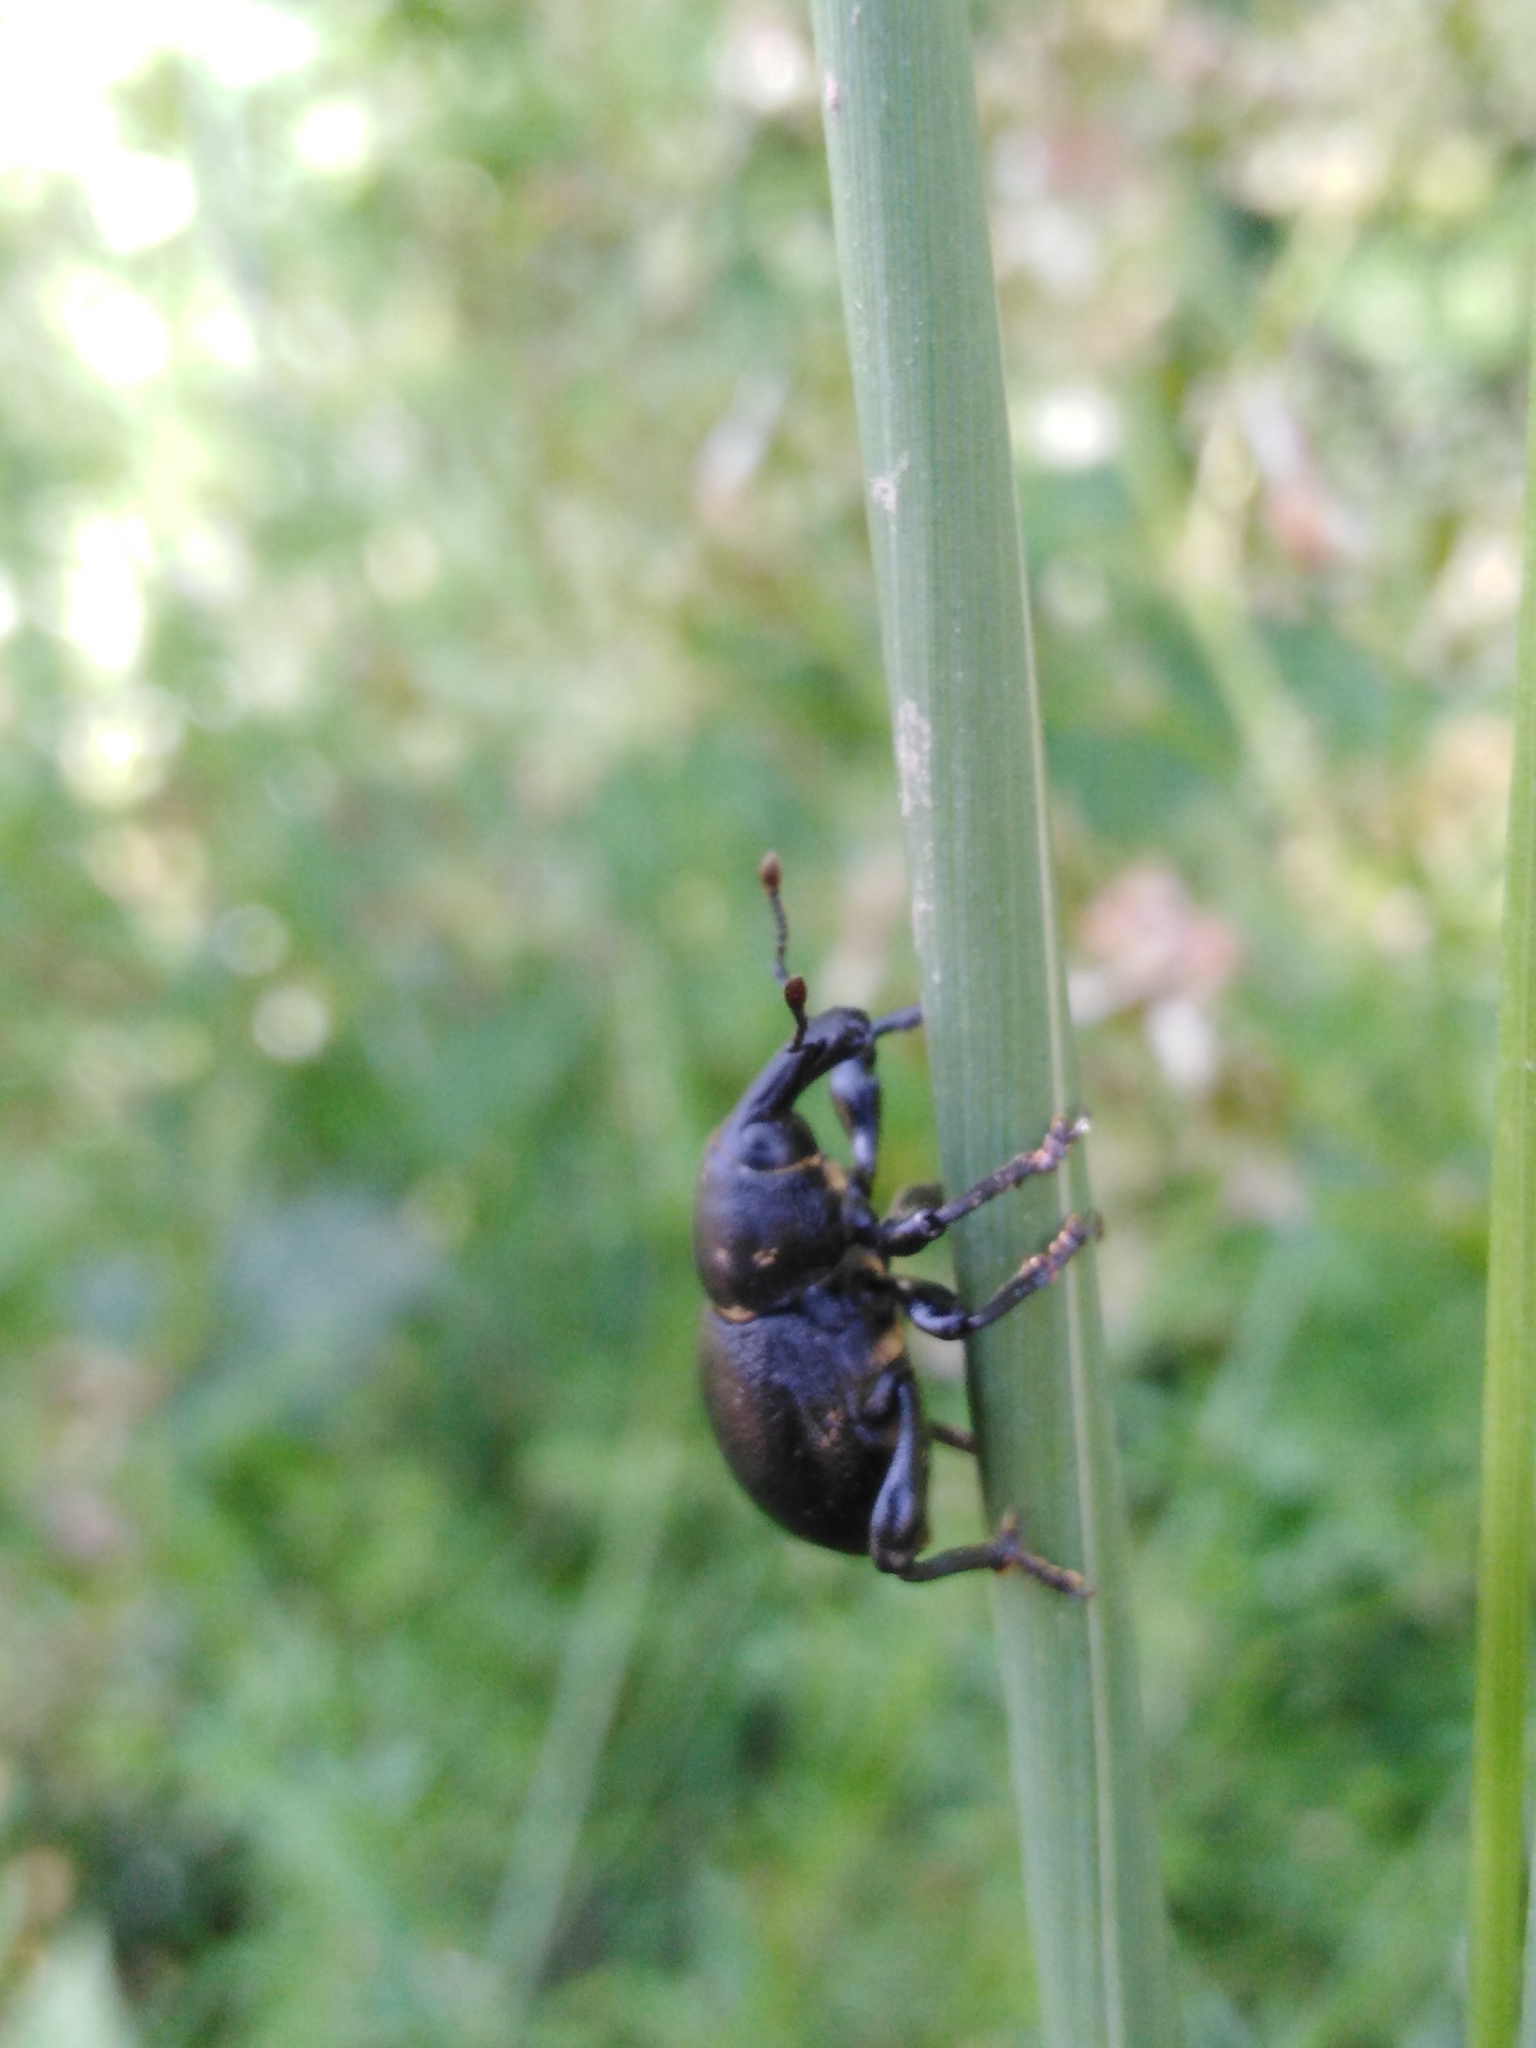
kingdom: Animalia
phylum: Arthropoda
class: Insecta
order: Coleoptera
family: Curculionidae
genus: Liparus
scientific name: Liparus coronatus
